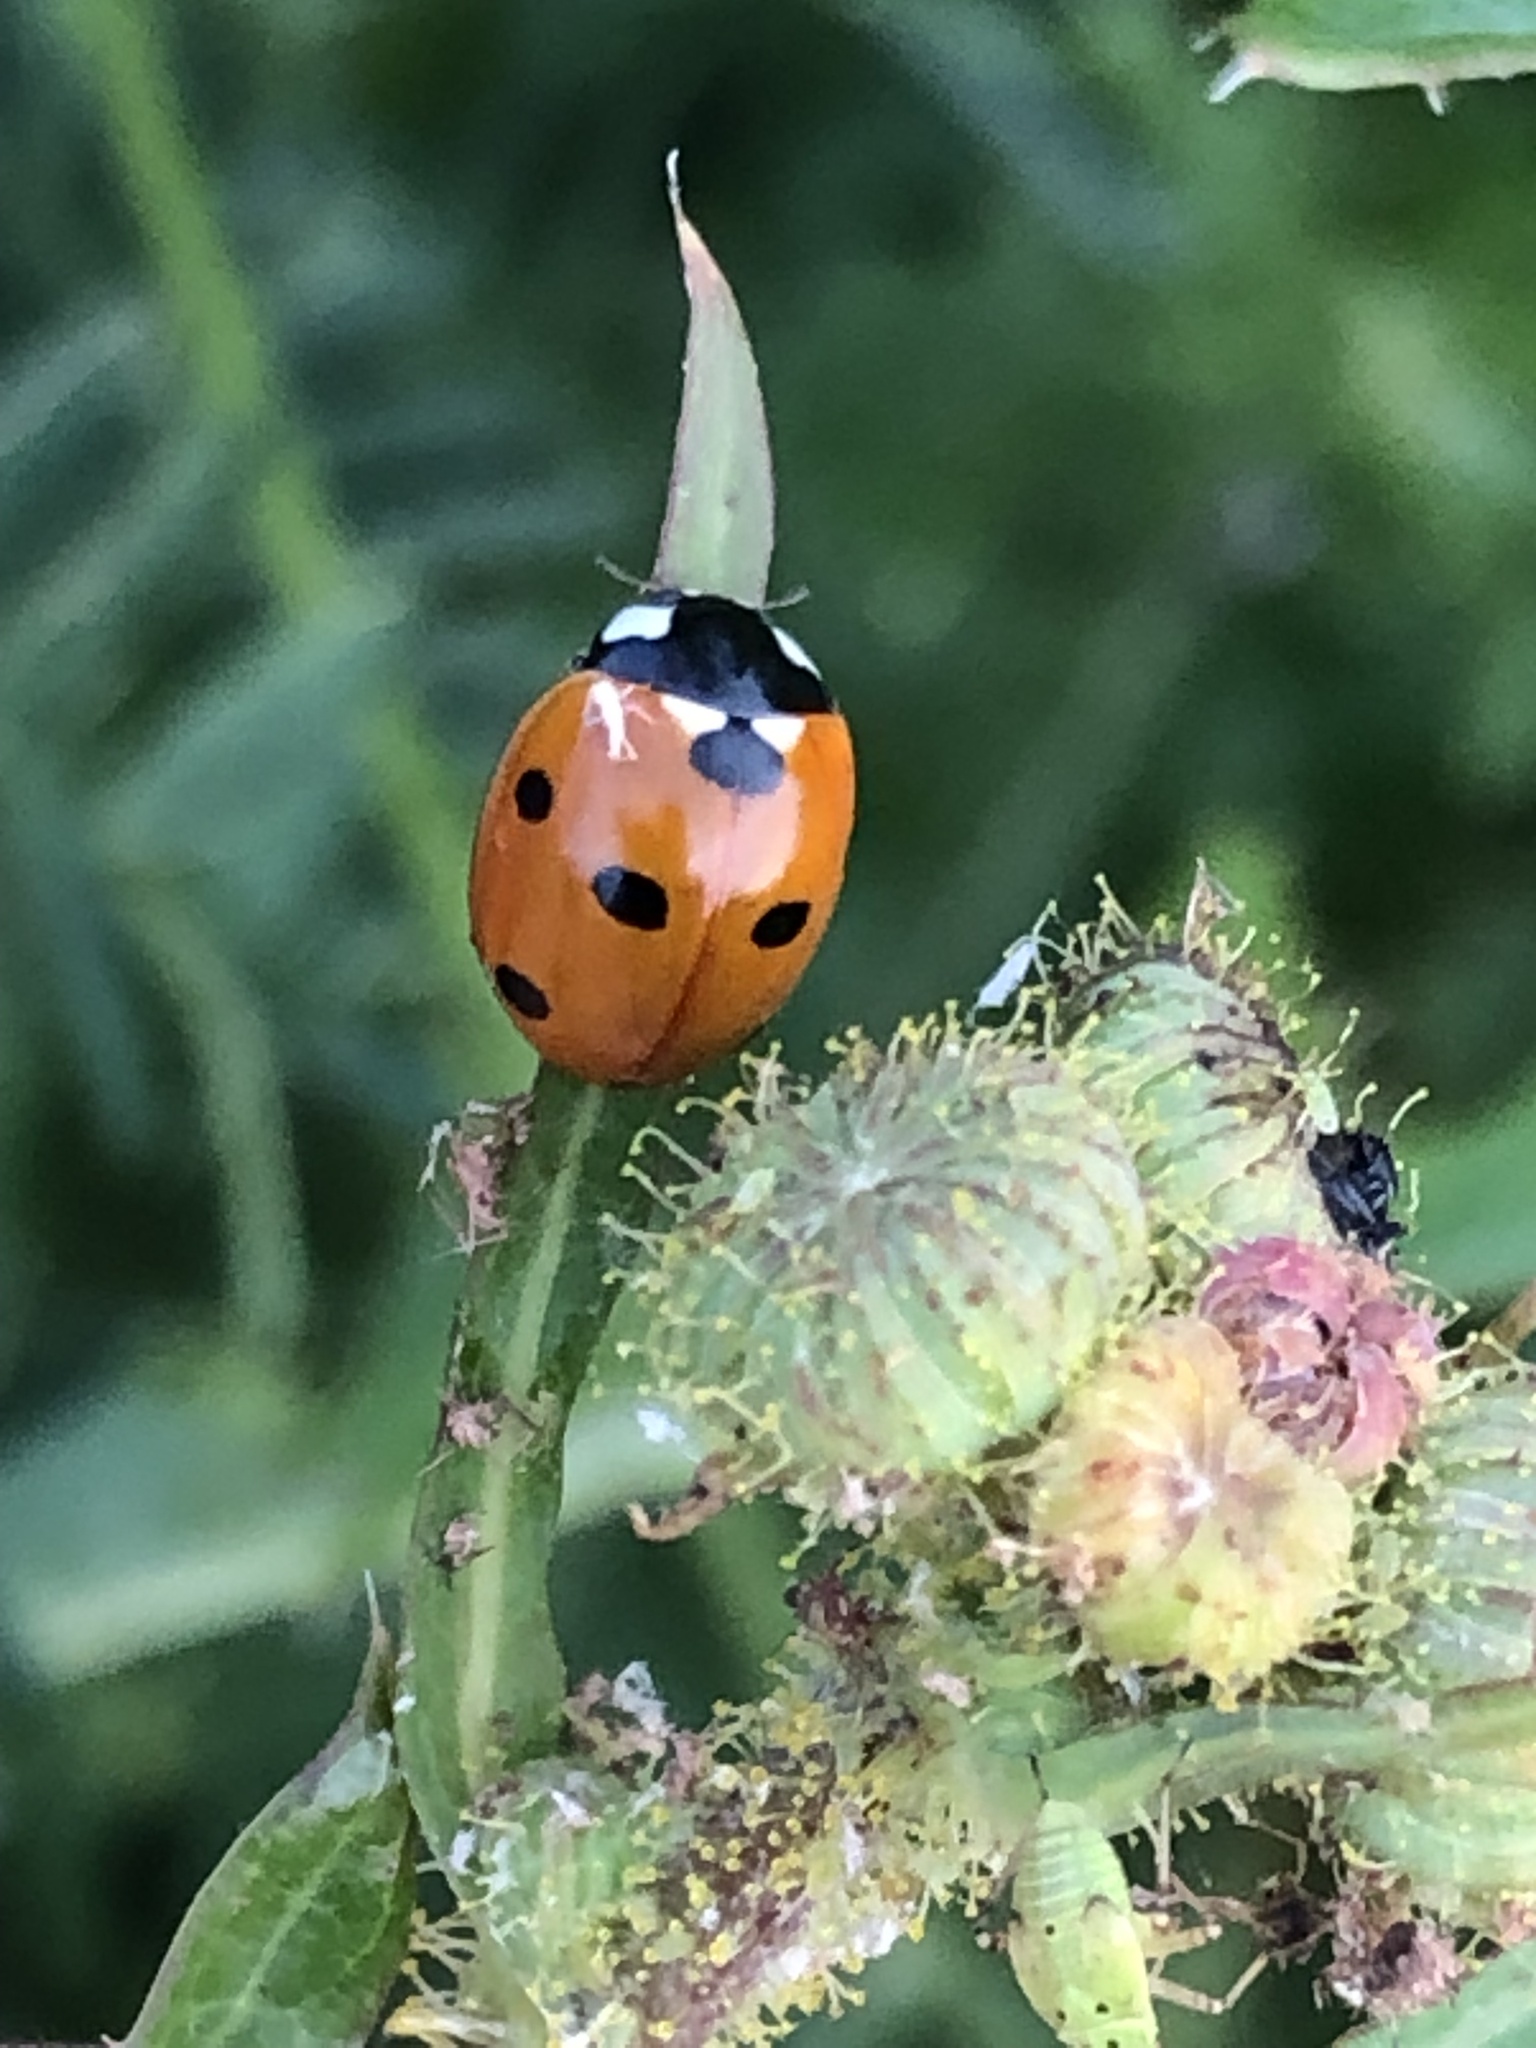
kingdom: Animalia
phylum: Arthropoda
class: Insecta
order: Coleoptera
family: Coccinellidae
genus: Coccinella
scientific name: Coccinella septempunctata
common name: Sevenspotted lady beetle
